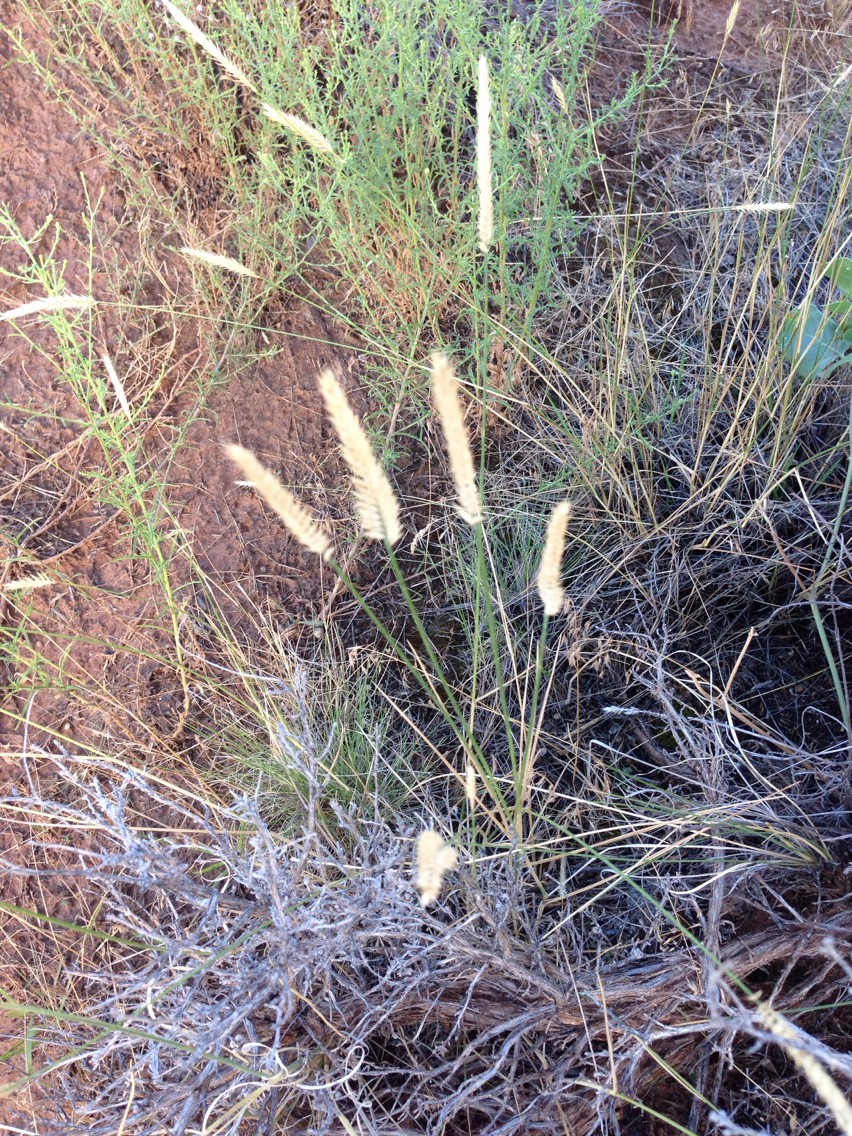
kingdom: Plantae
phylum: Tracheophyta
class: Liliopsida
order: Poales
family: Poaceae
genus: Agropyron
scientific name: Agropyron cristatum
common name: Crested wheatgrass
